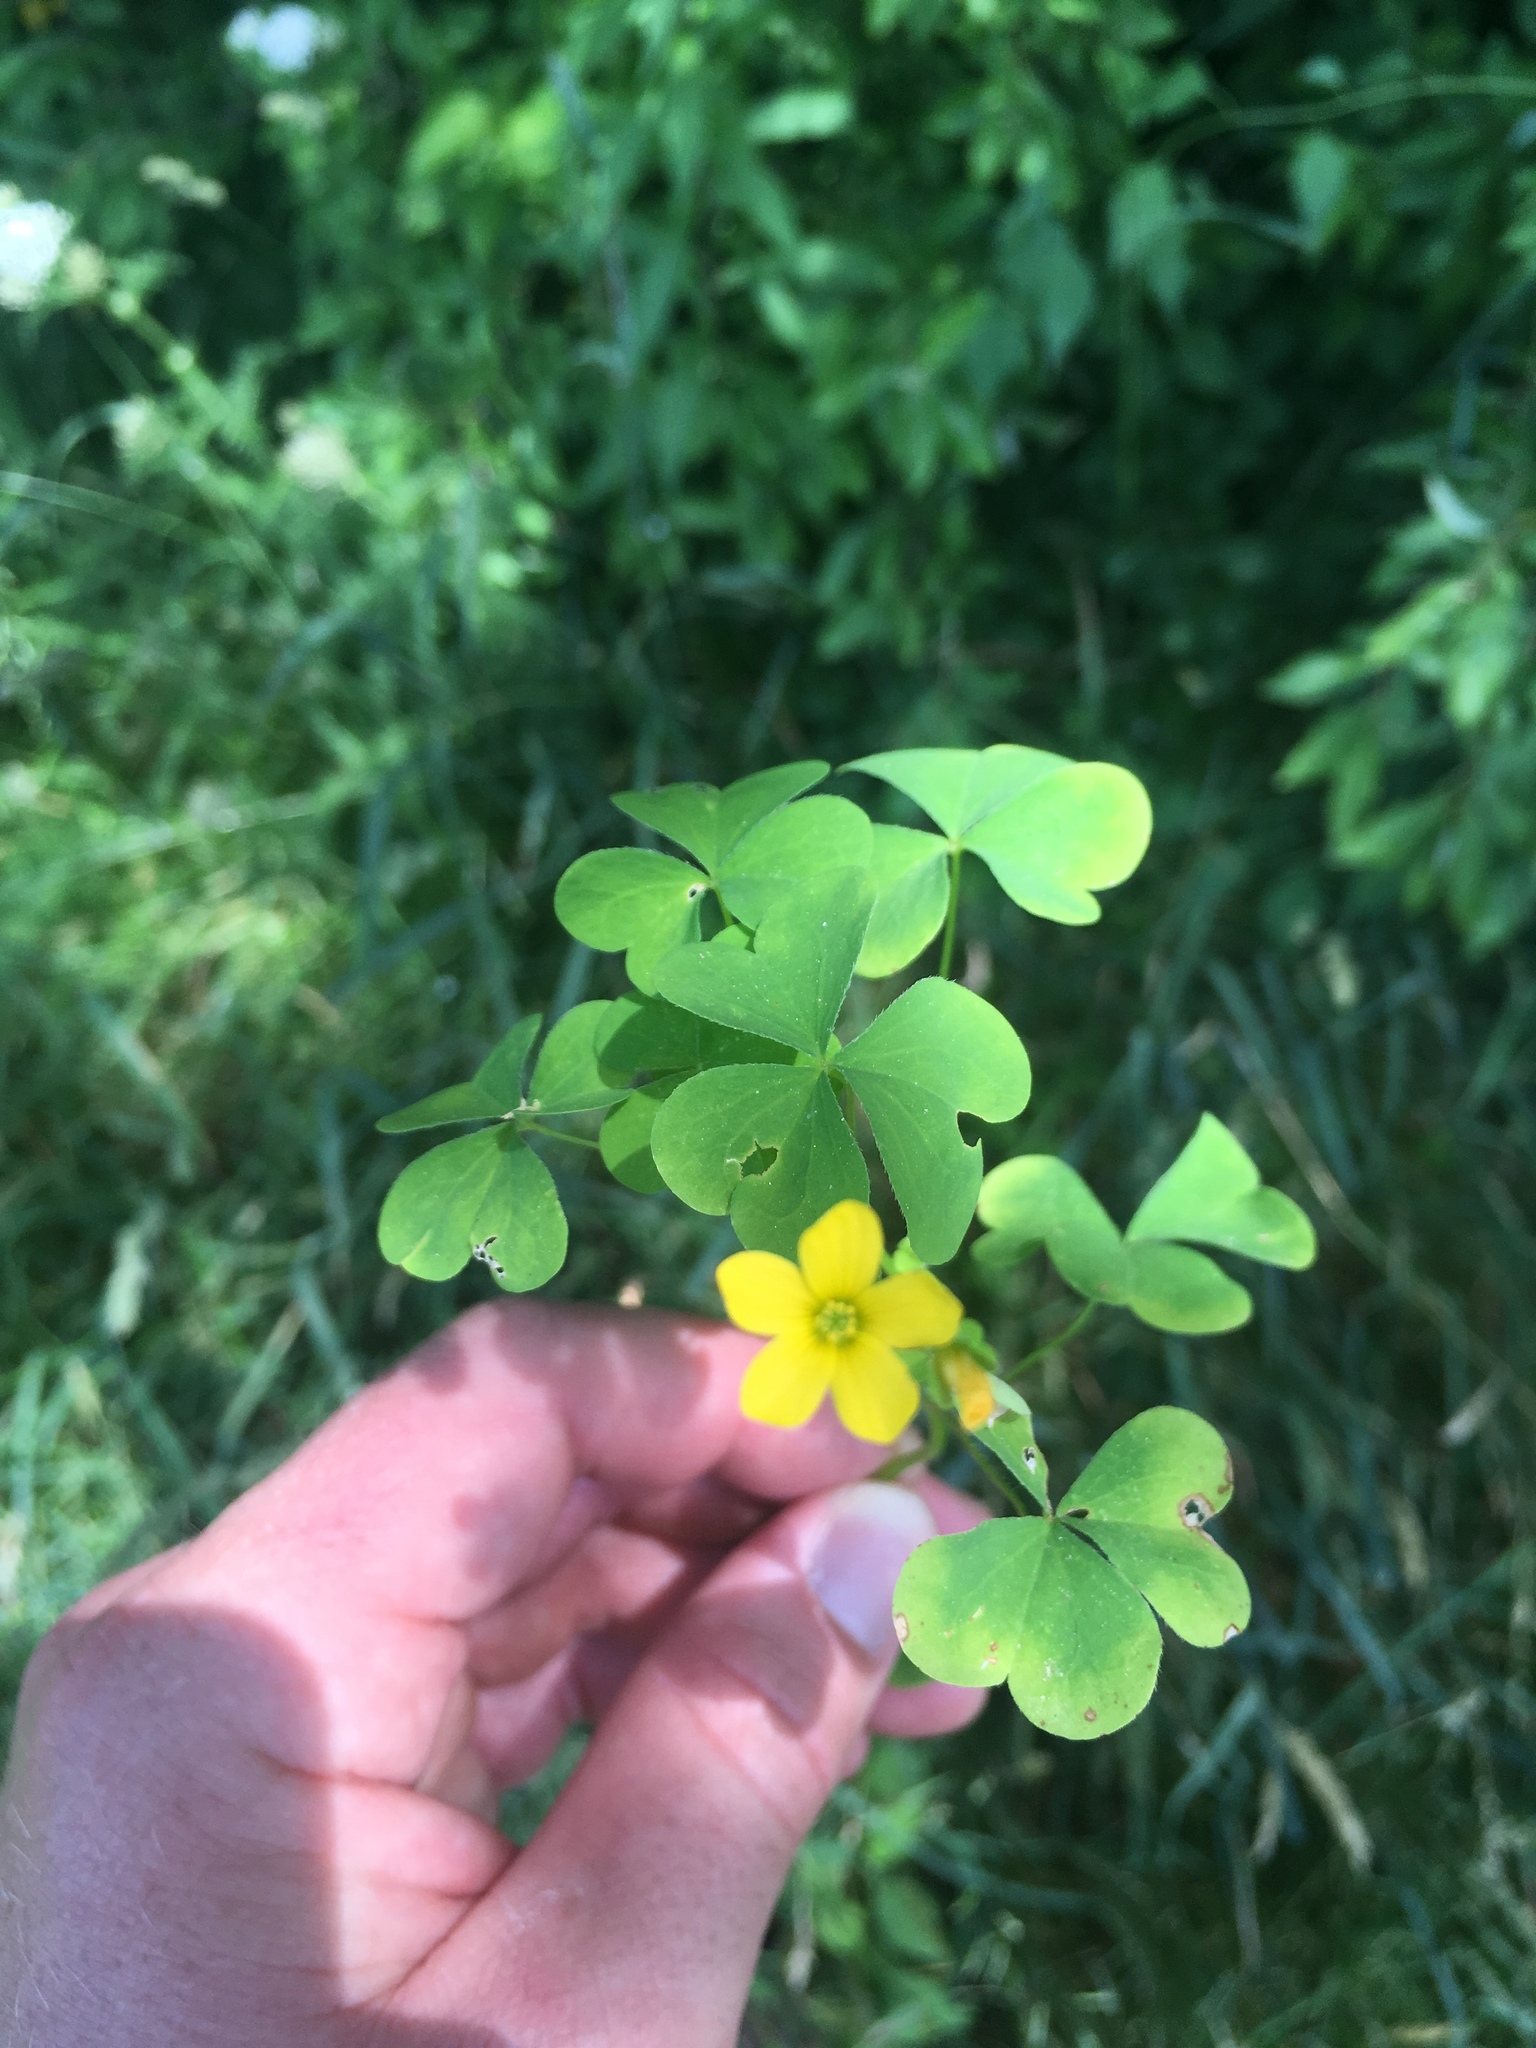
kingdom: Plantae
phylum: Tracheophyta
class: Magnoliopsida
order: Oxalidales
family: Oxalidaceae
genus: Oxalis
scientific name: Oxalis
